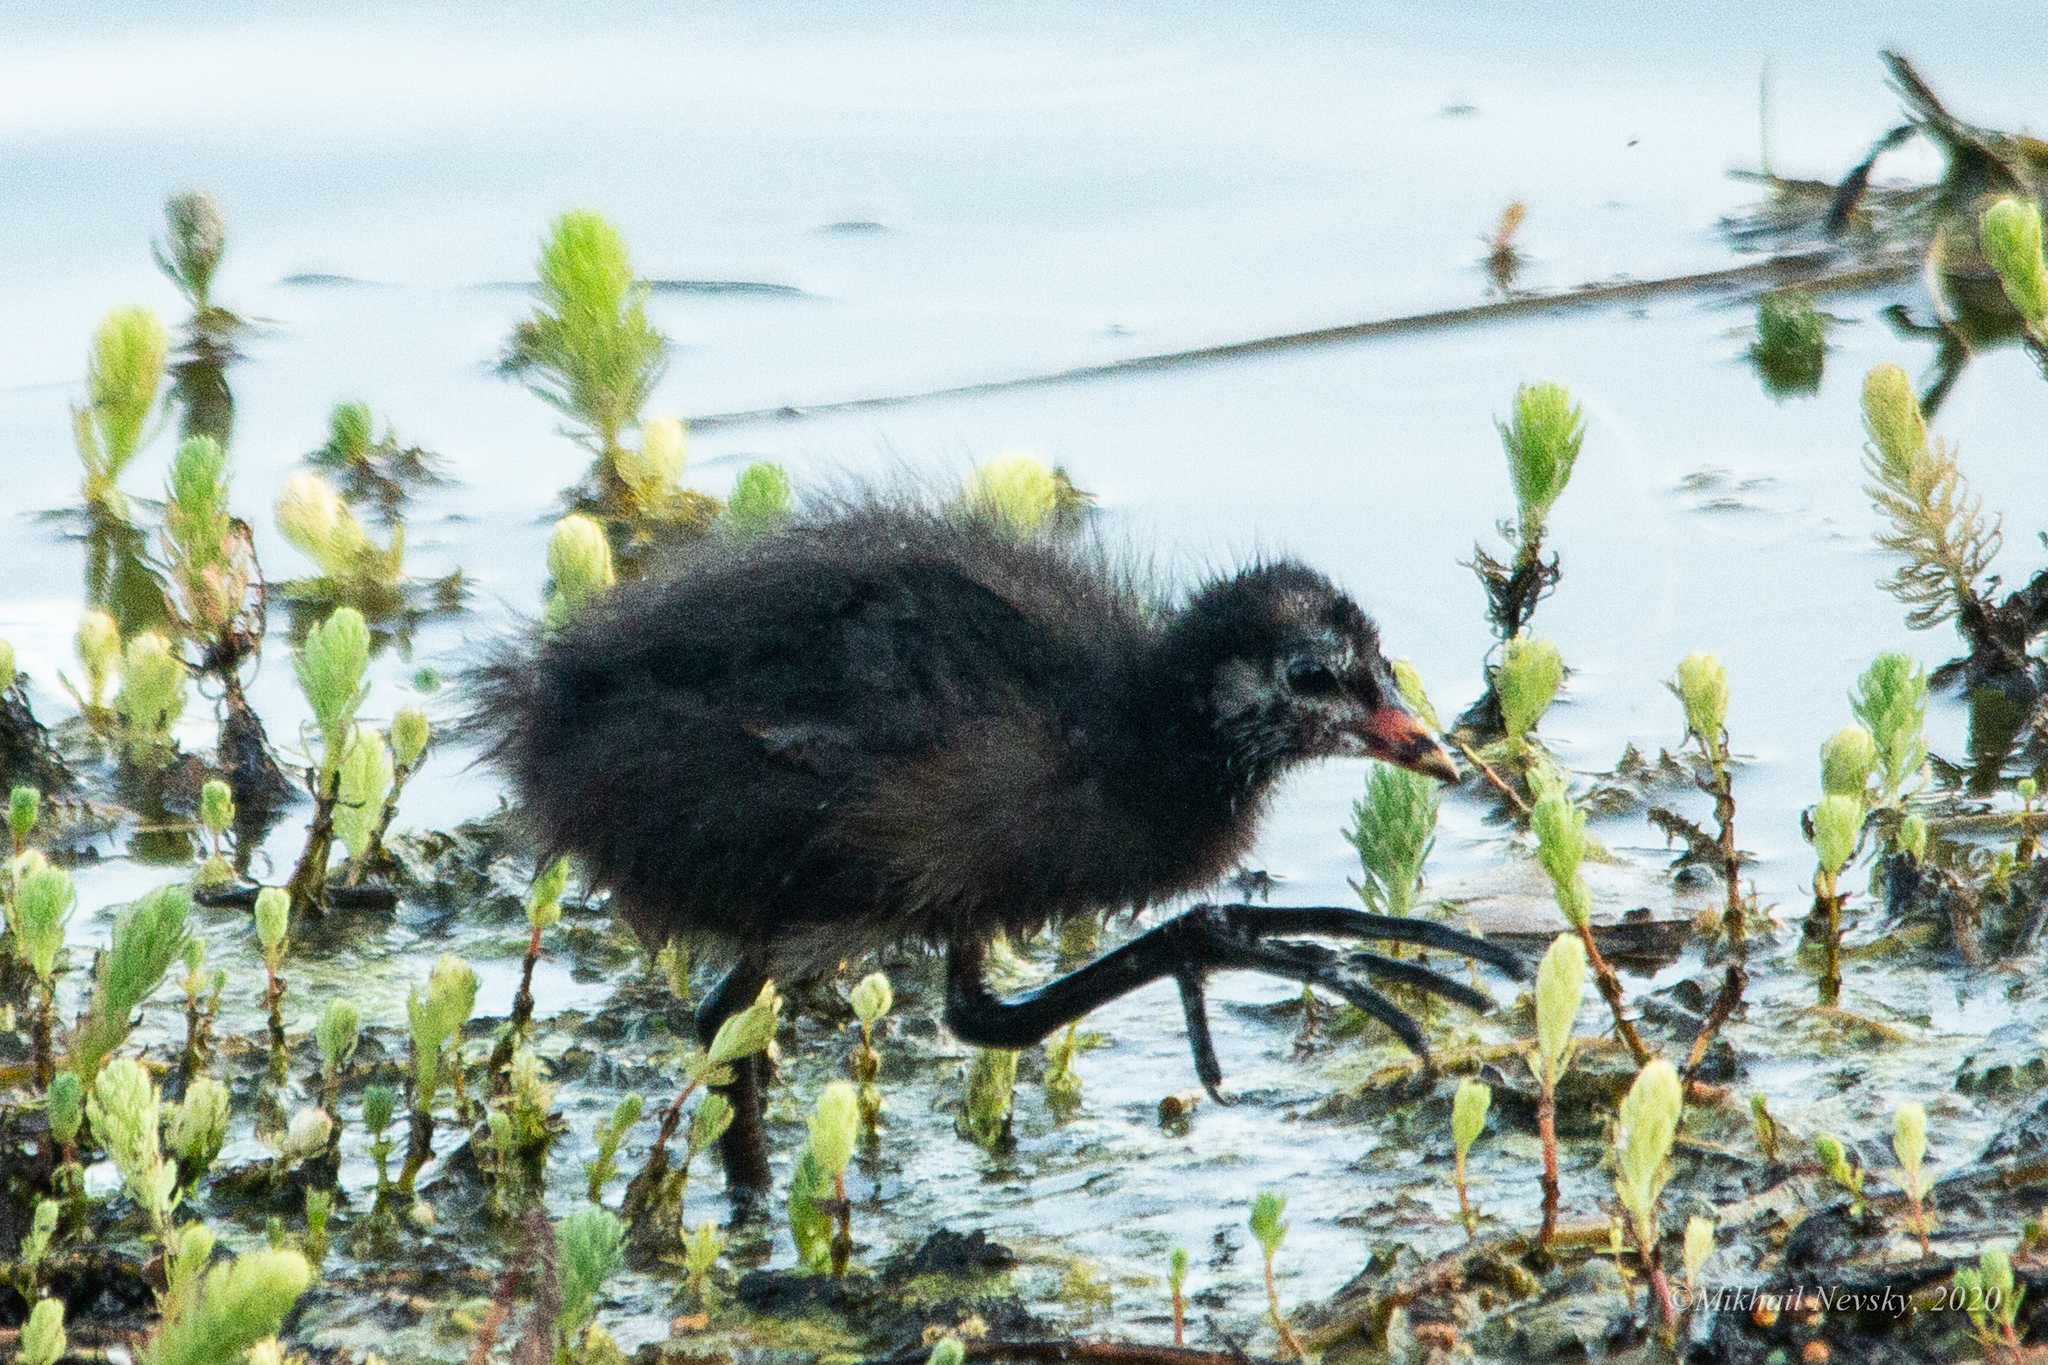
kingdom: Animalia
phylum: Chordata
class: Aves
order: Gruiformes
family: Rallidae
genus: Gallinula
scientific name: Gallinula chloropus
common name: Common moorhen
